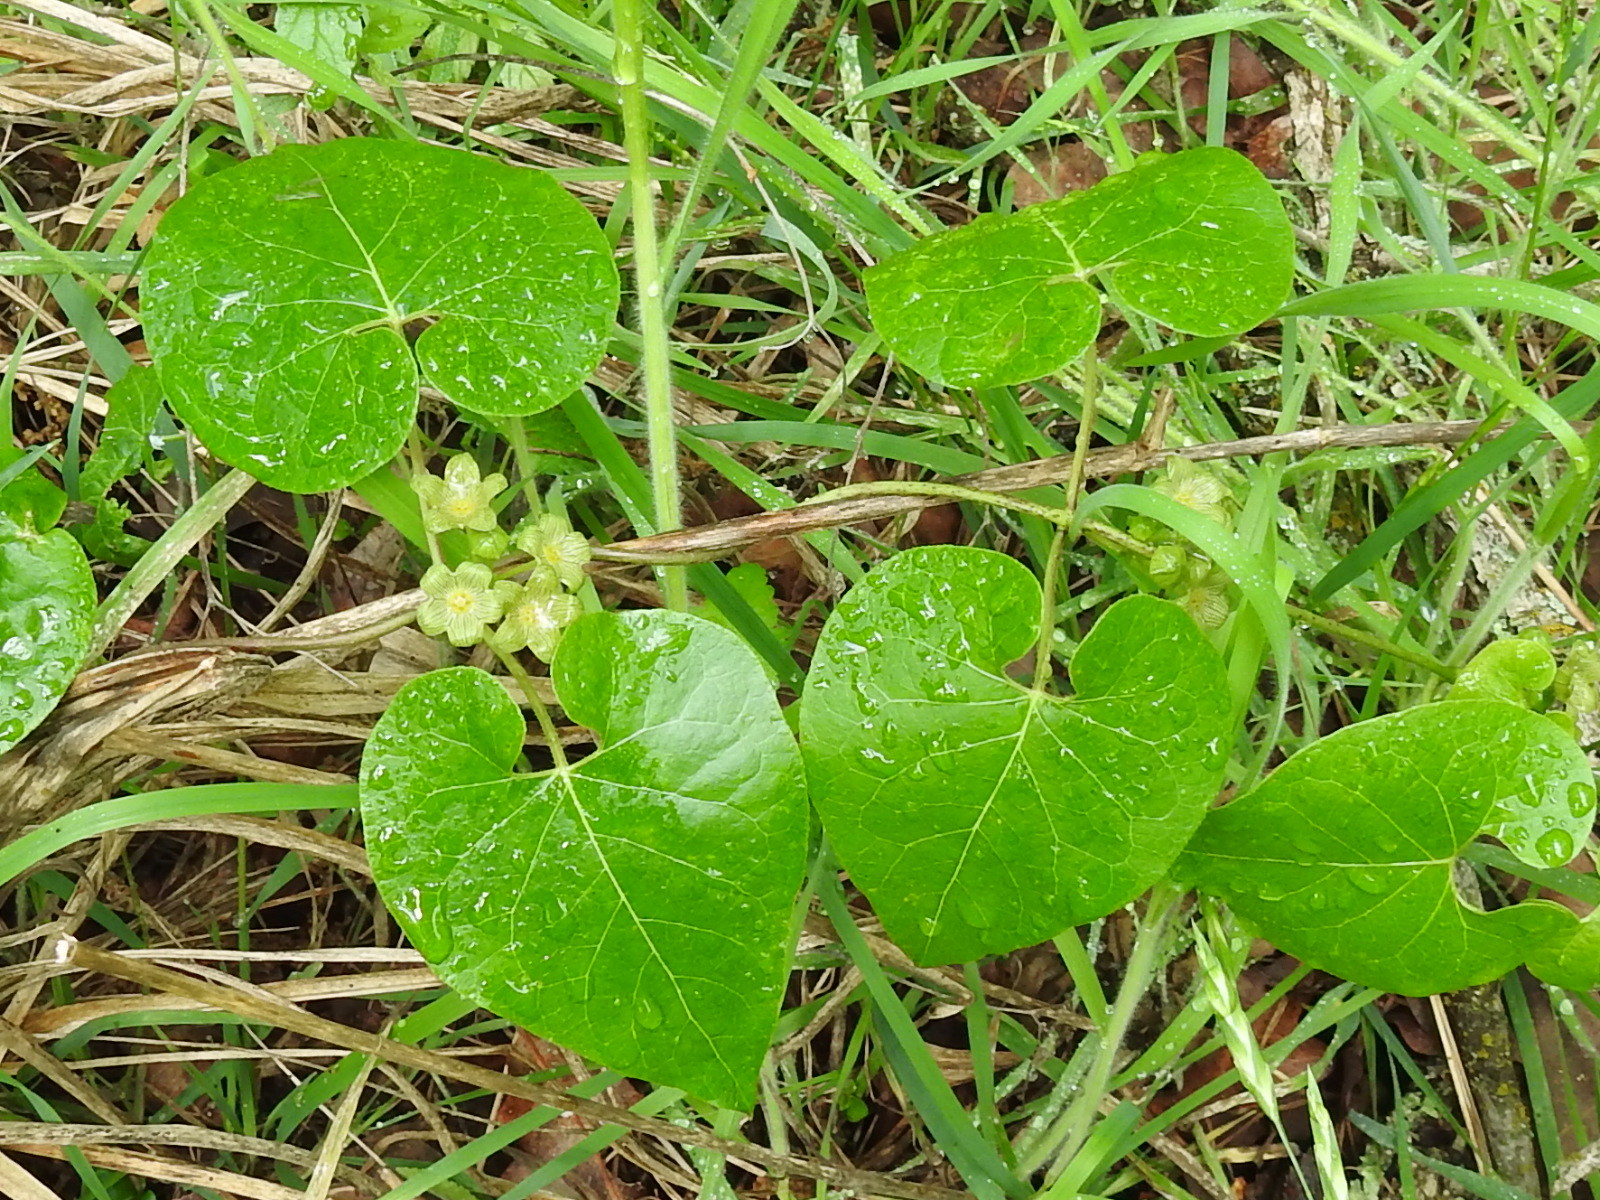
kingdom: Plantae
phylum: Tracheophyta
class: Magnoliopsida
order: Gentianales
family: Apocynaceae
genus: Matelea
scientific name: Matelea edwardsensis
